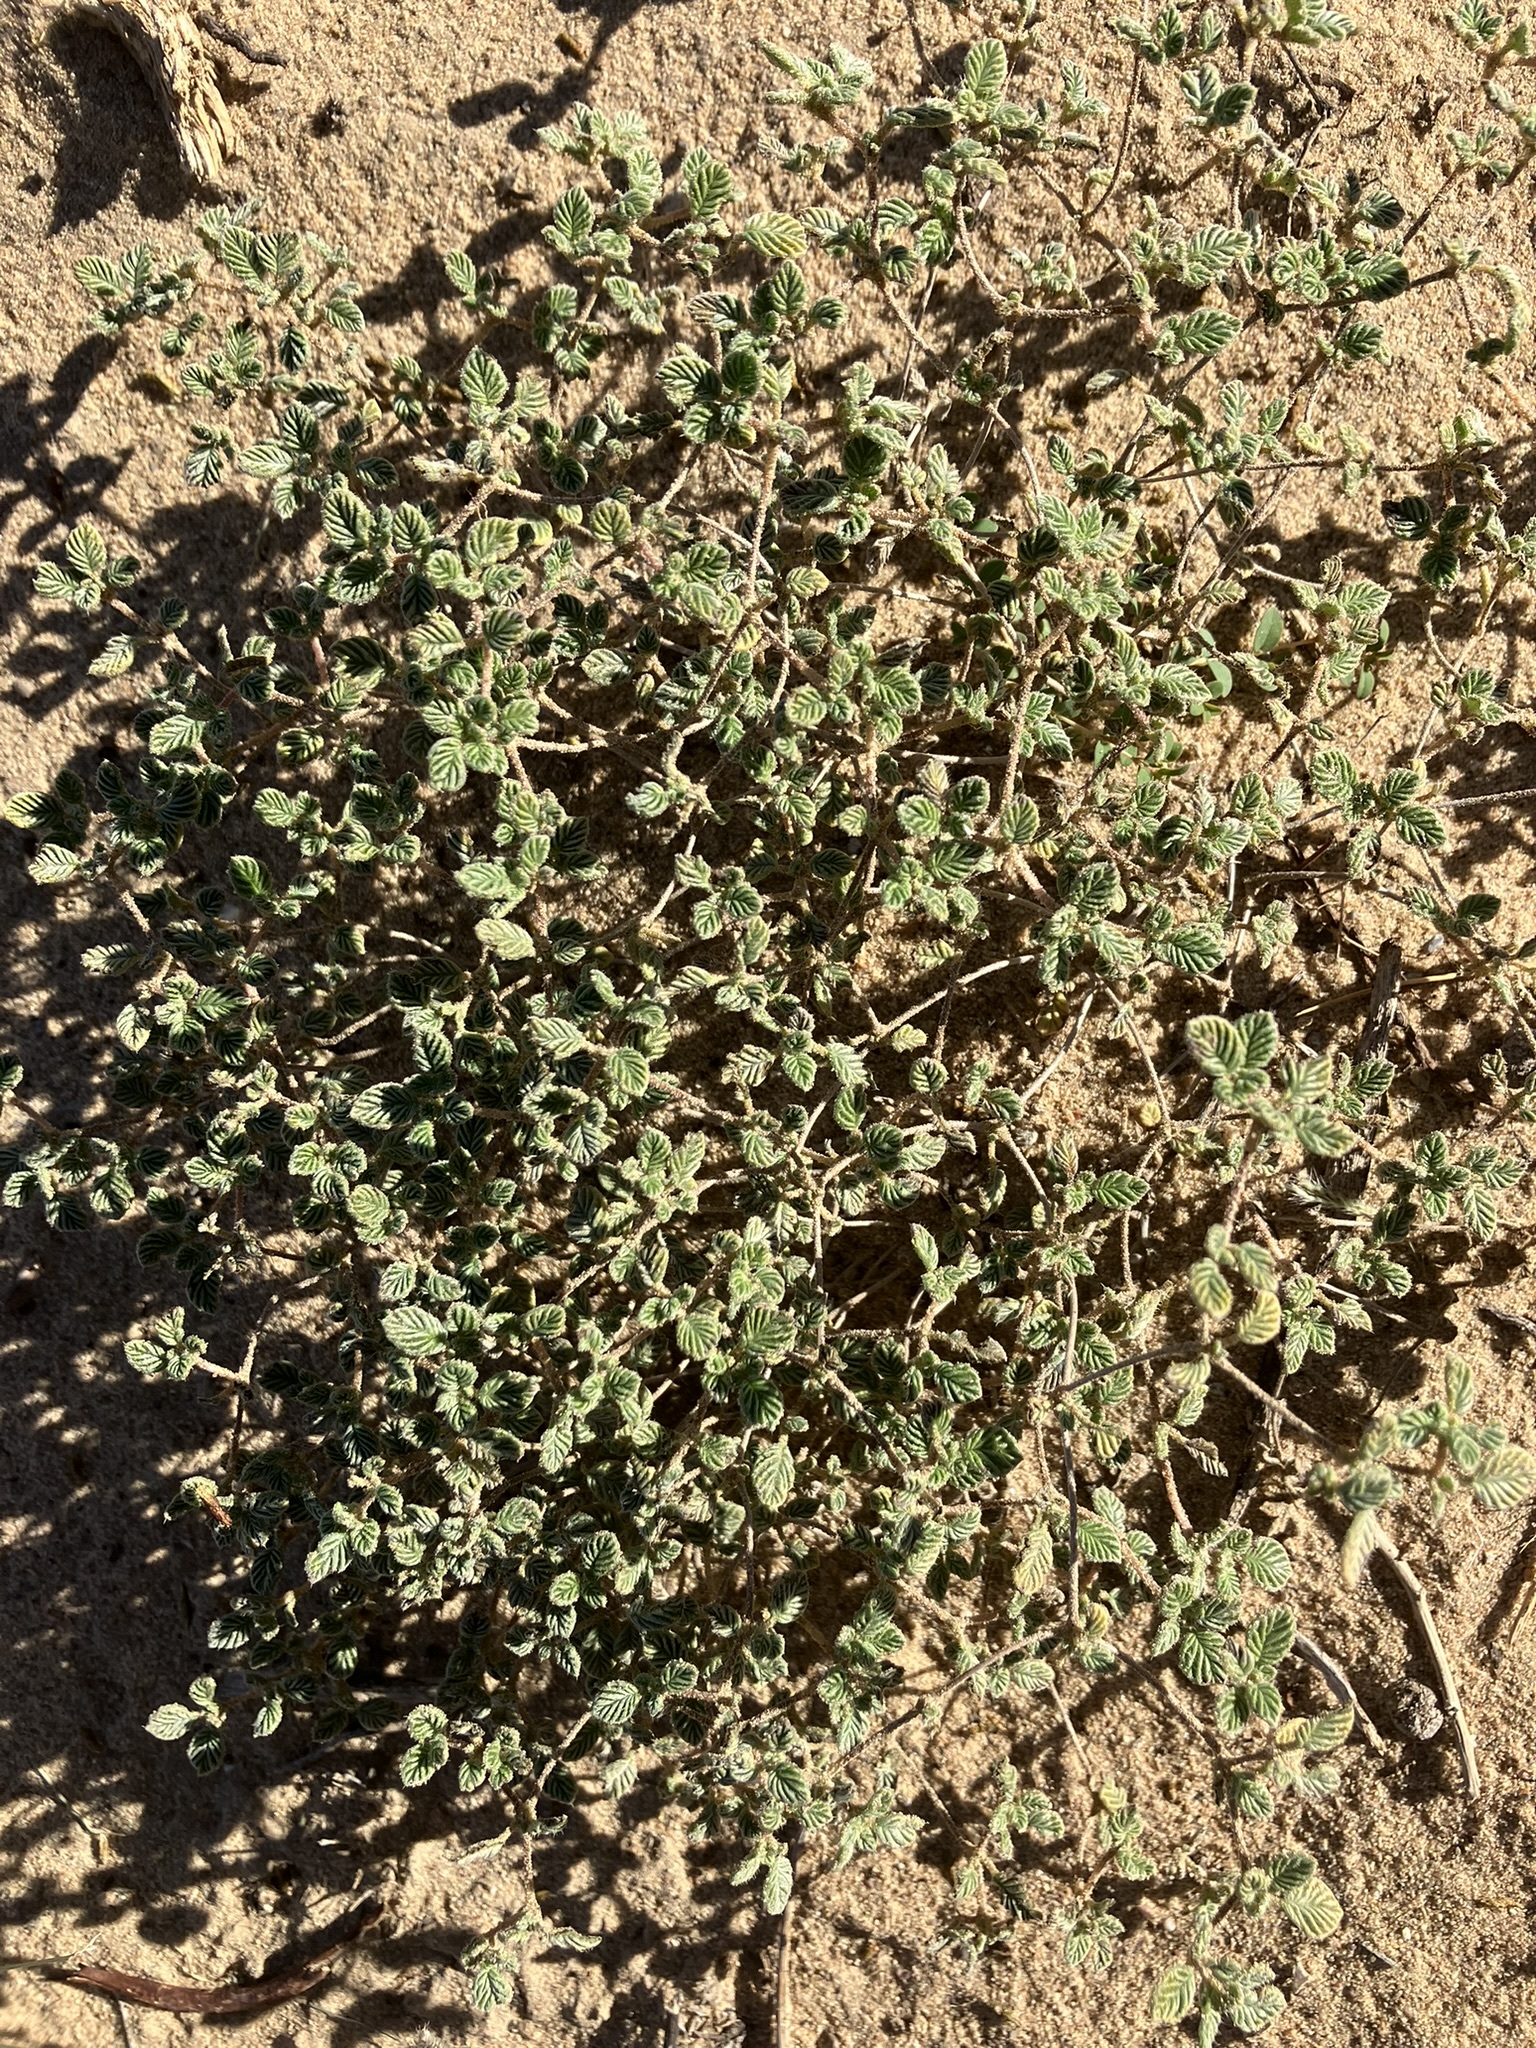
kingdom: Plantae
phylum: Tracheophyta
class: Magnoliopsida
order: Boraginales
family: Ehretiaceae
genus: Tiquilia
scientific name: Tiquilia plicata
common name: Fan-leaf tiquilia
